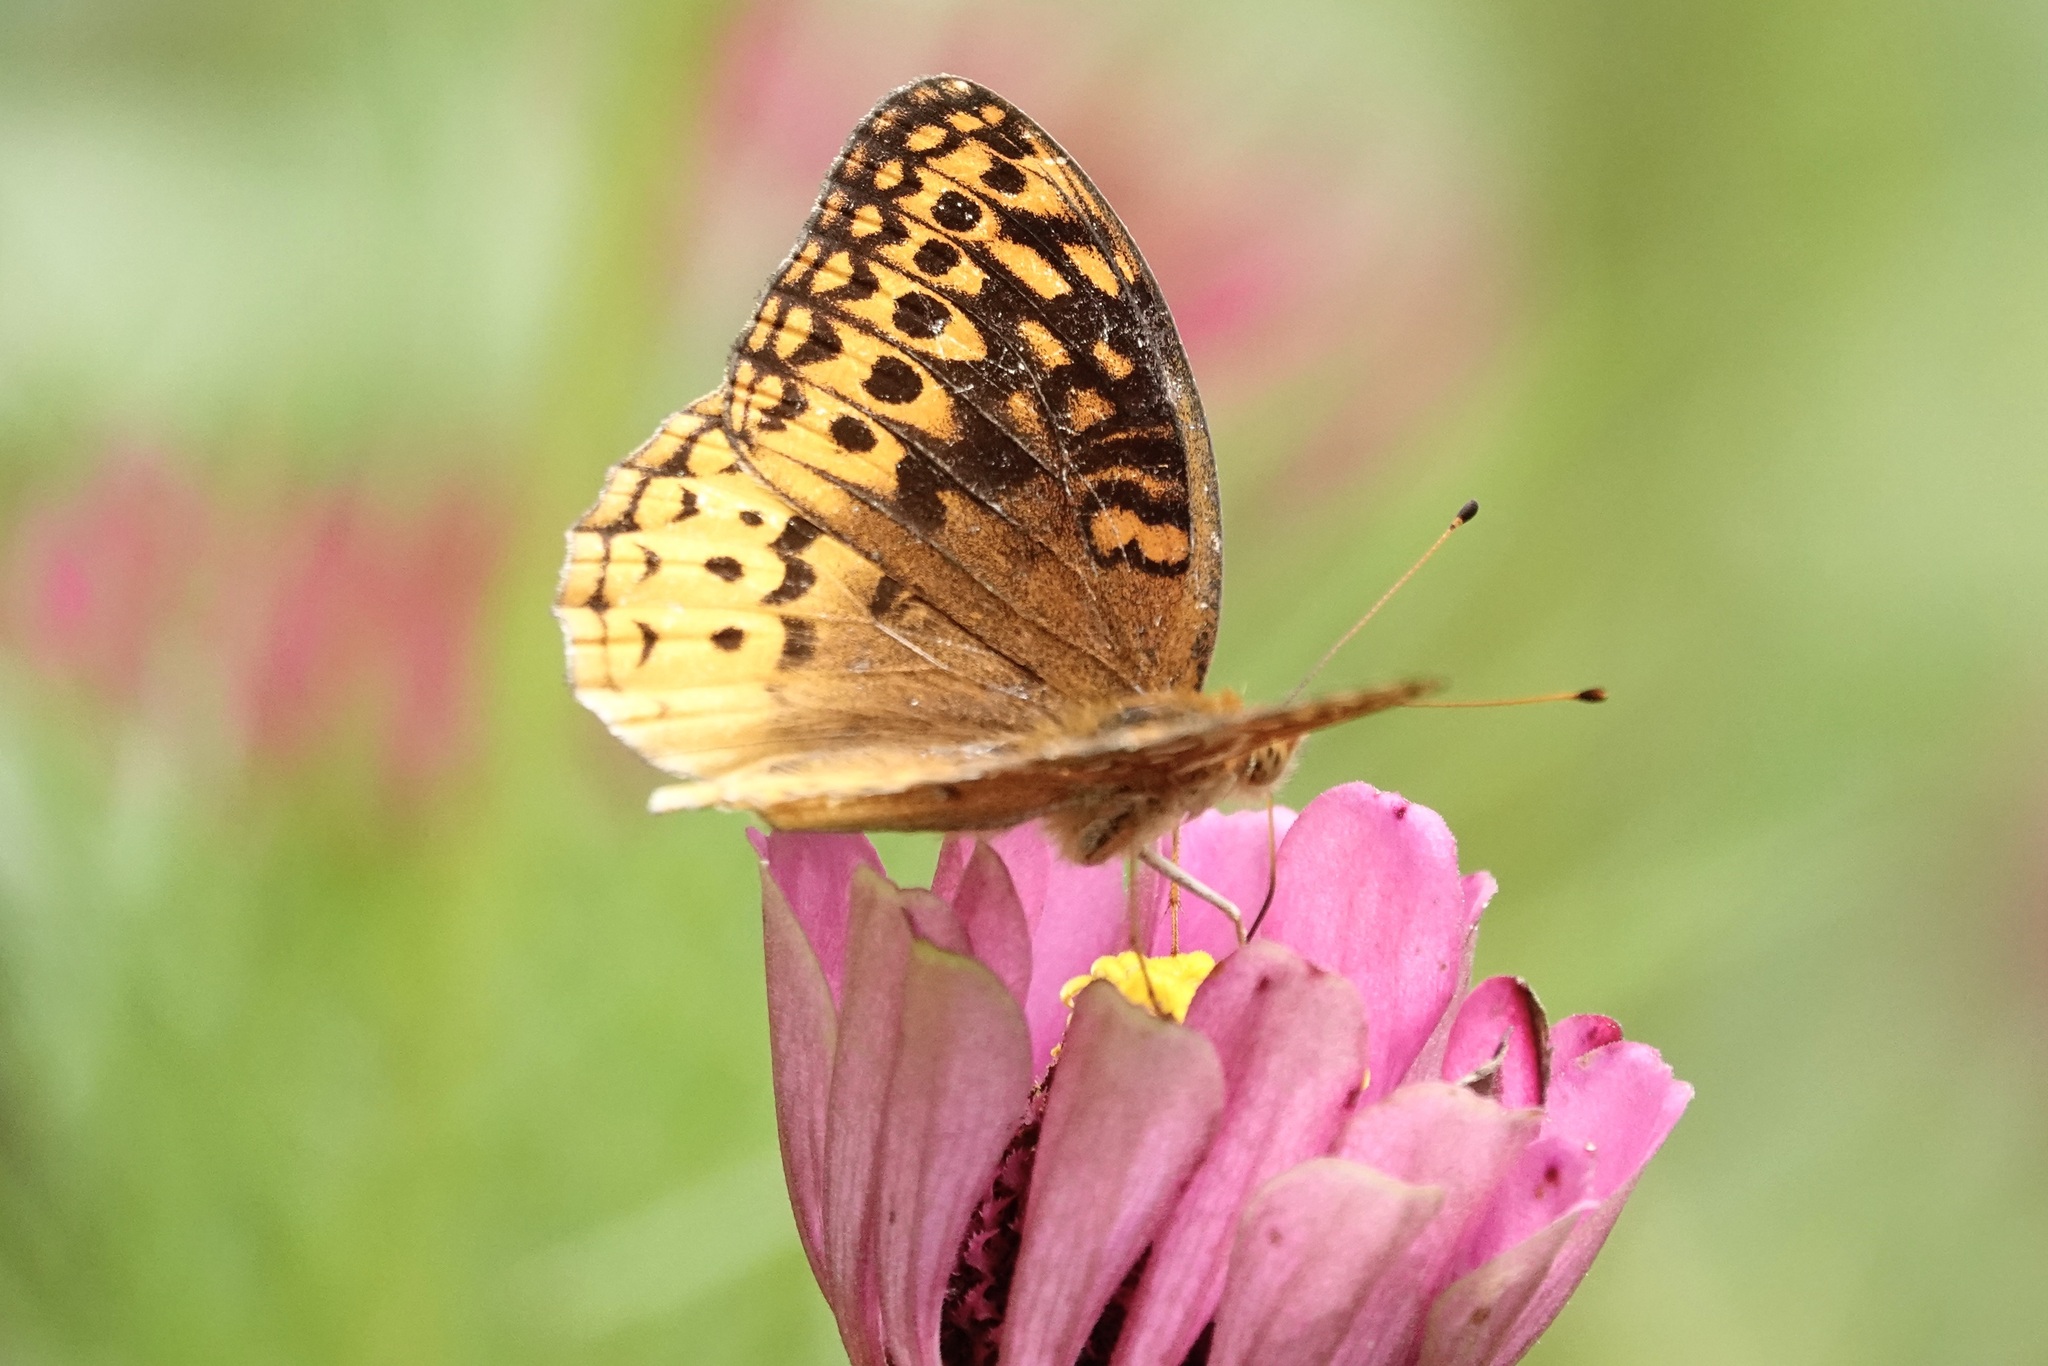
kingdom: Animalia
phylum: Arthropoda
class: Insecta
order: Lepidoptera
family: Nymphalidae
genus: Speyeria
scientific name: Speyeria cybele
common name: Great spangled fritillary
